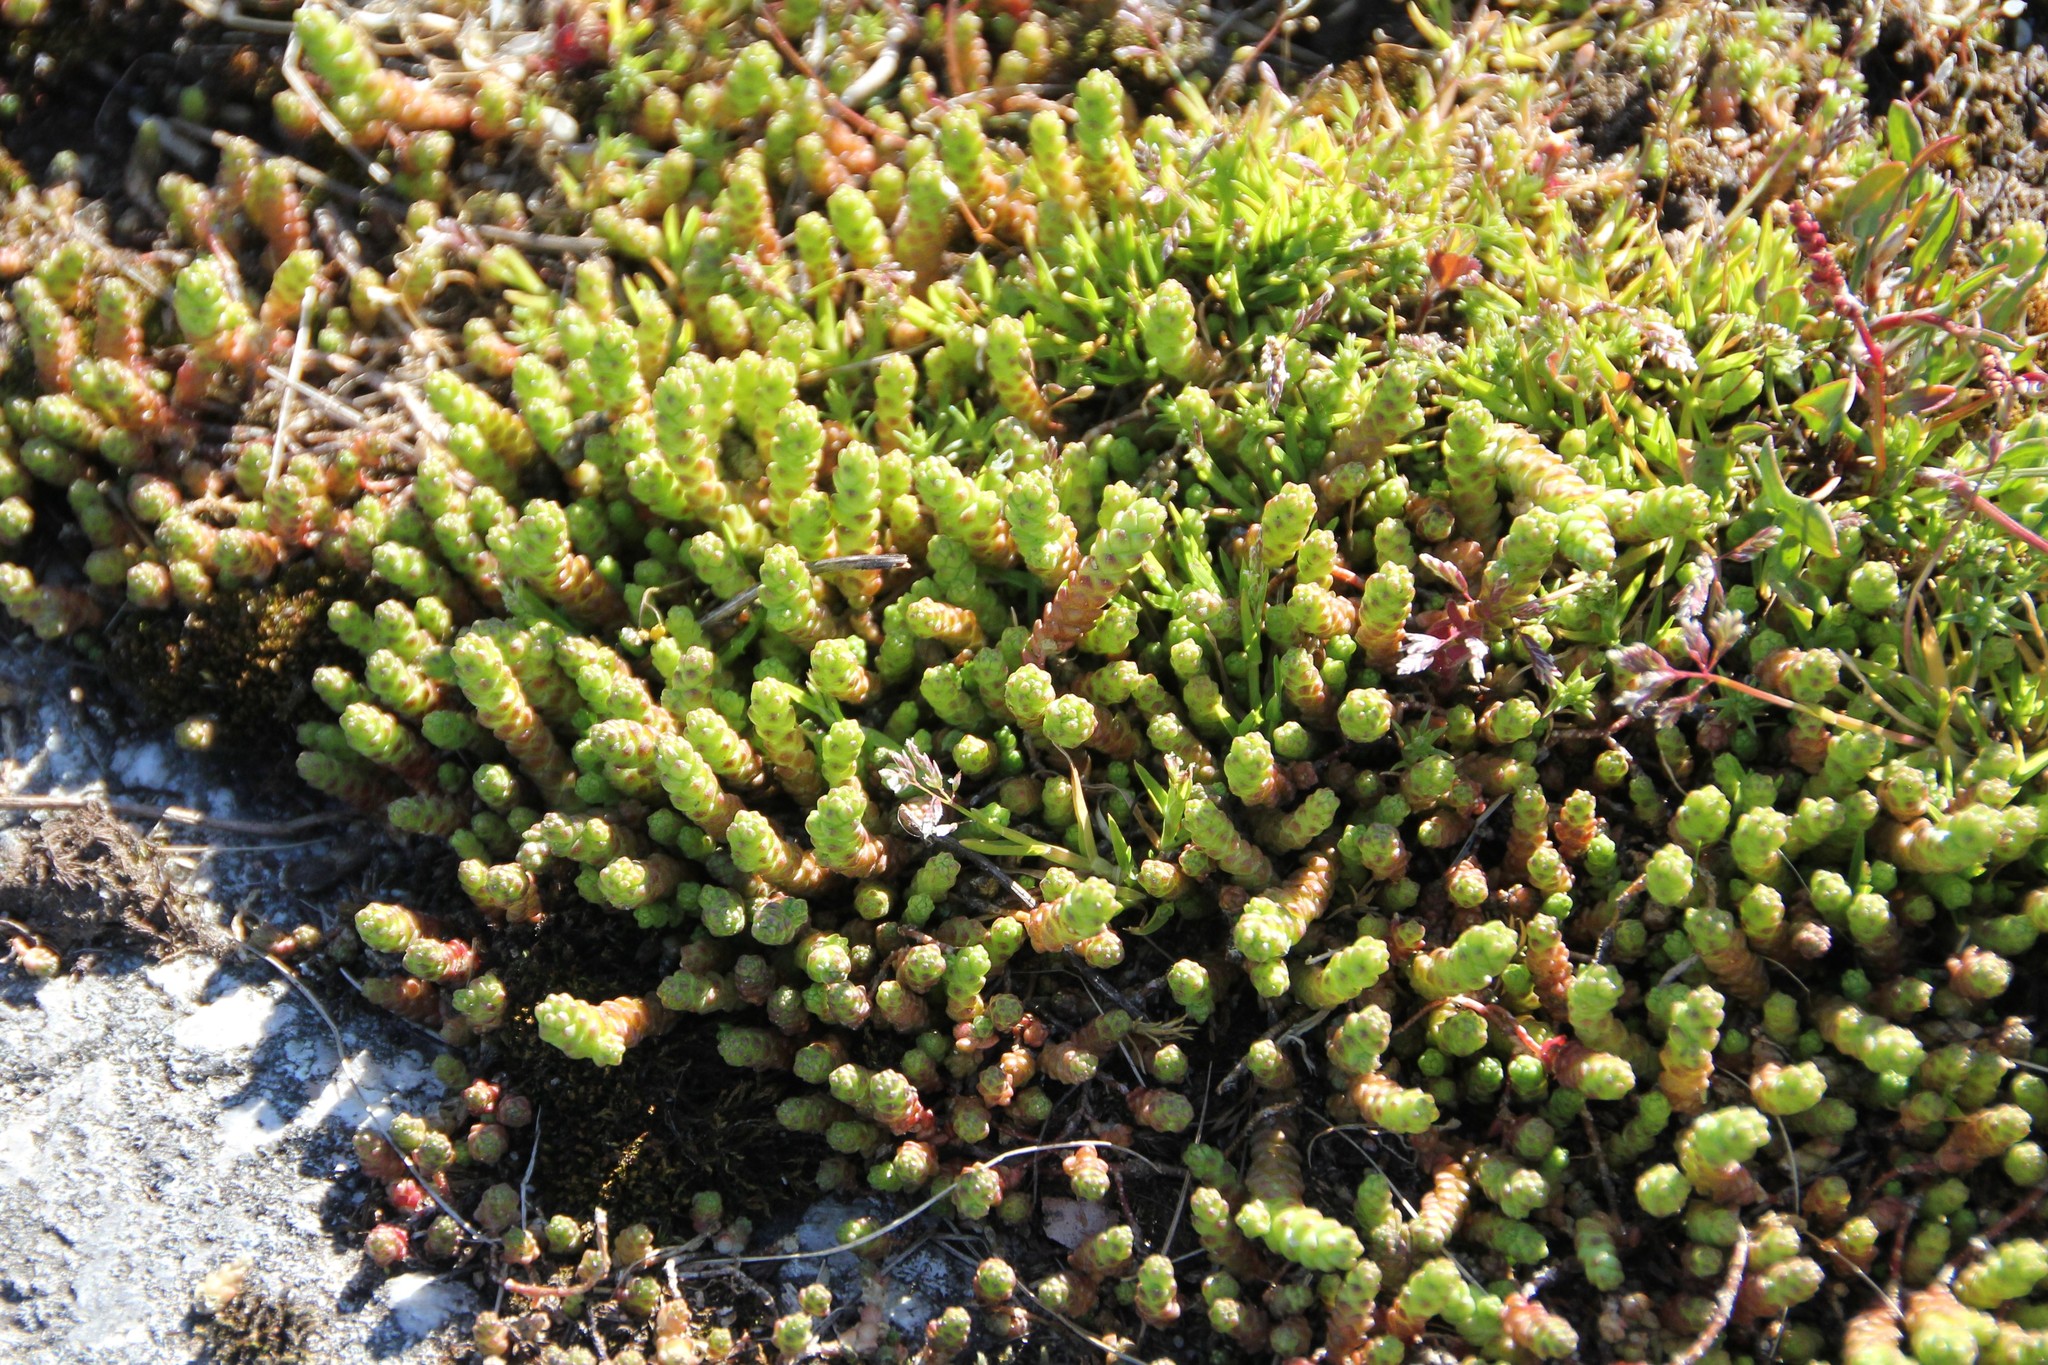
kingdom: Plantae
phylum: Tracheophyta
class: Magnoliopsida
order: Saxifragales
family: Crassulaceae
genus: Sedum
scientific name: Sedum acre
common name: Biting stonecrop
